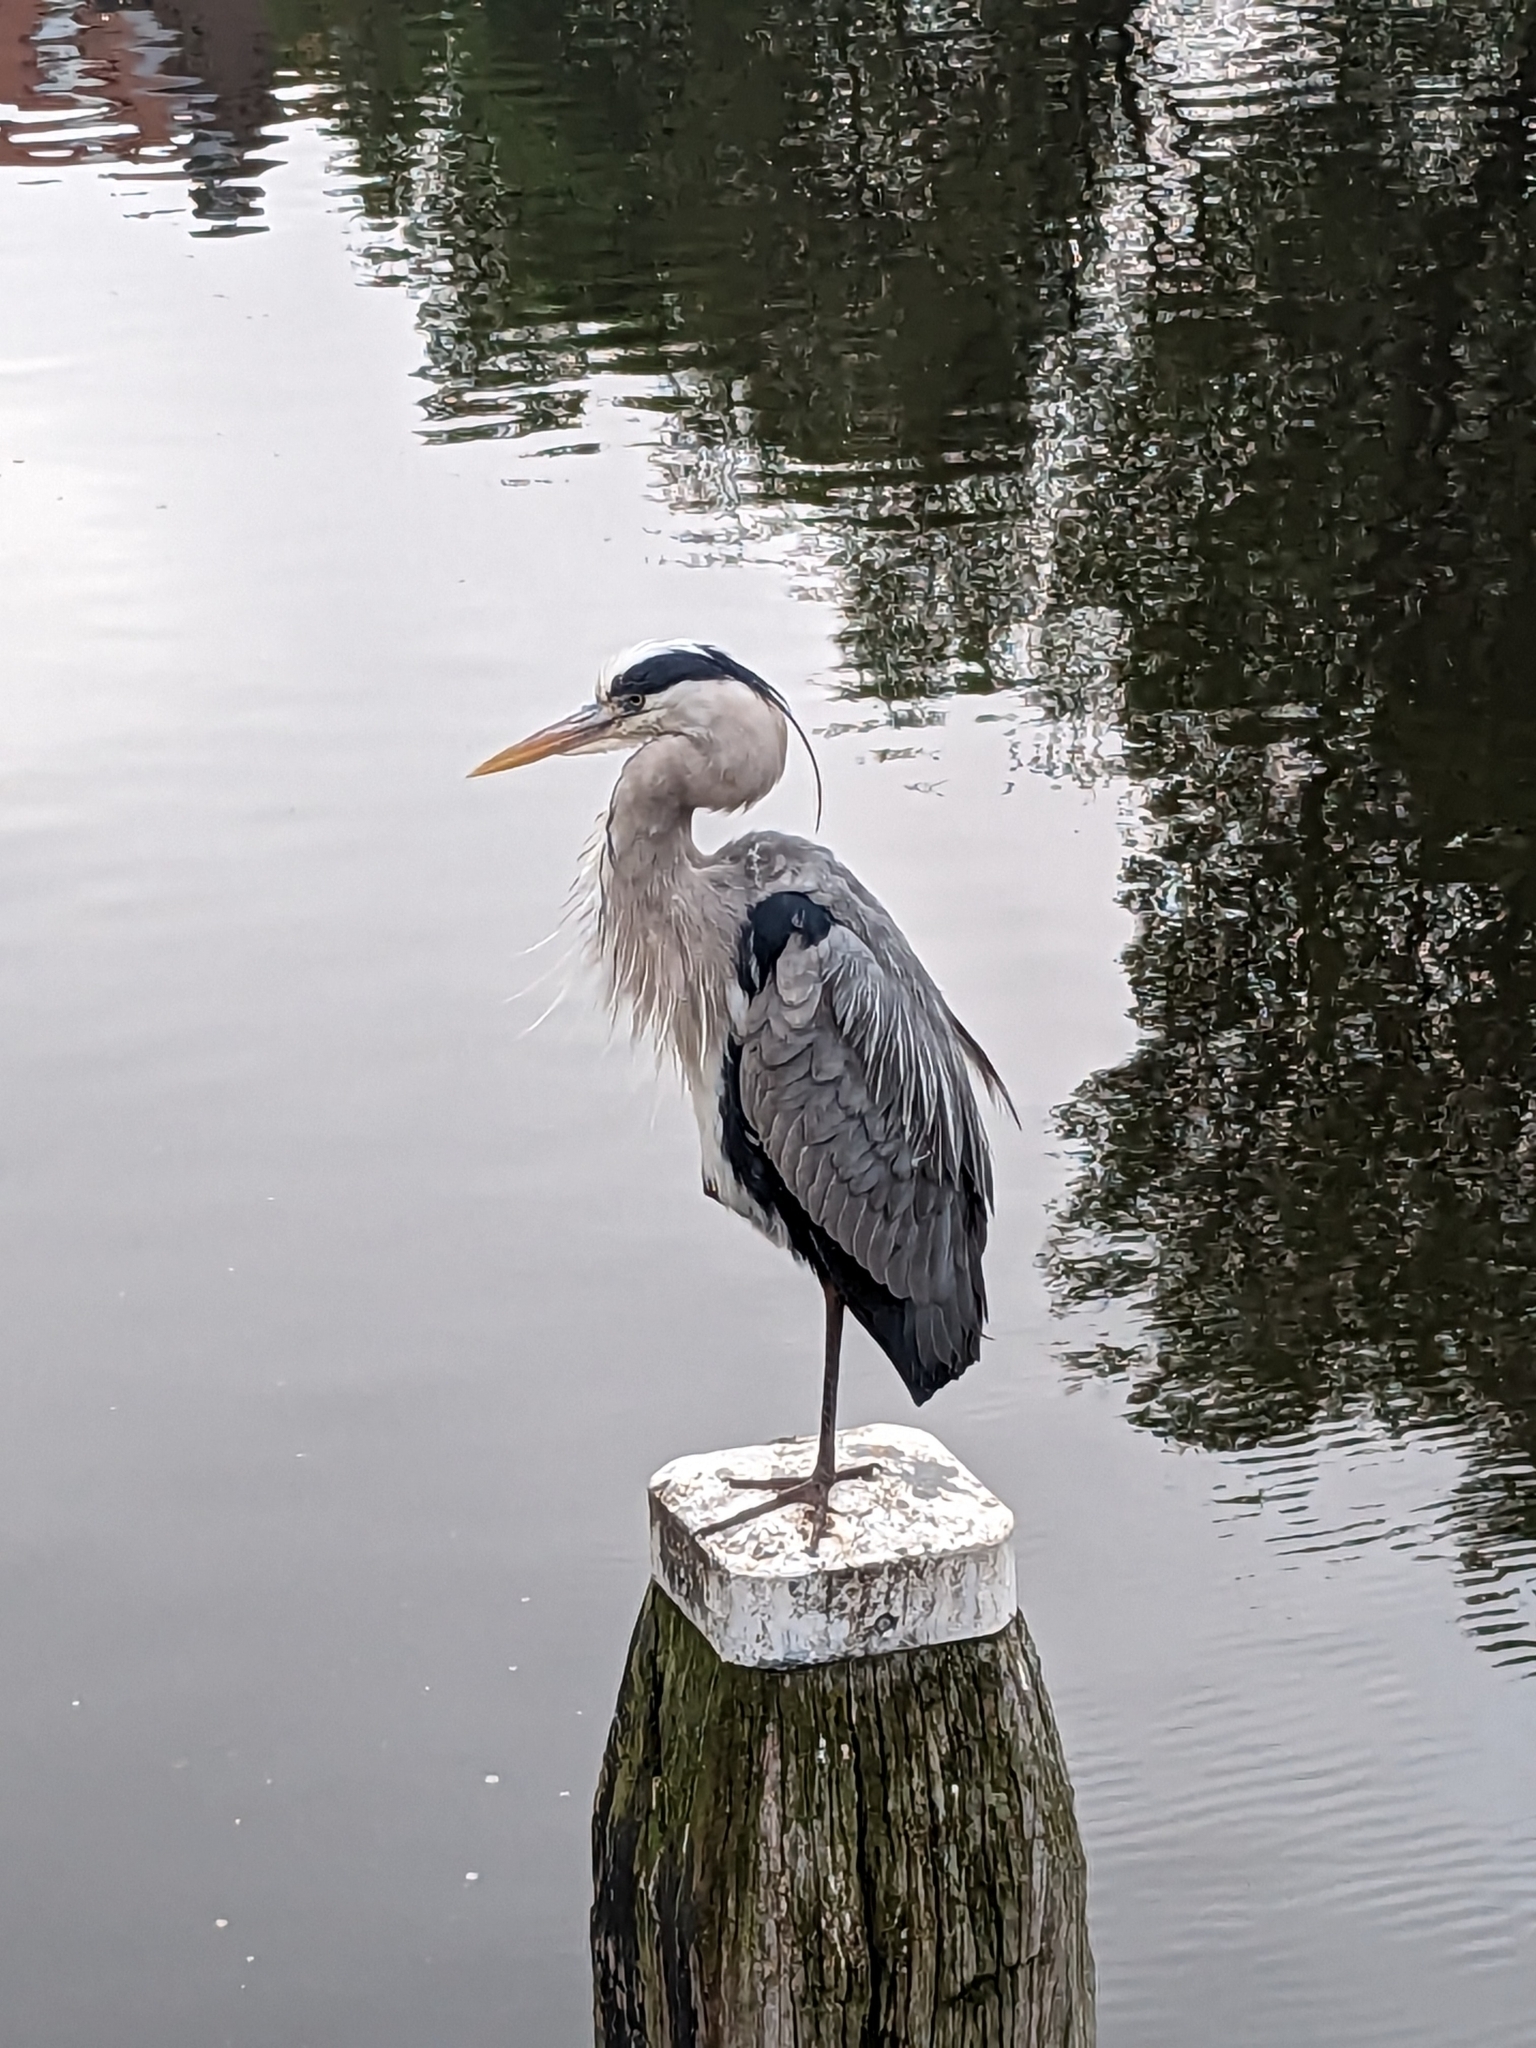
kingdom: Animalia
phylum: Chordata
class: Aves
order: Pelecaniformes
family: Ardeidae
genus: Ardea
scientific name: Ardea cinerea
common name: Grey heron
